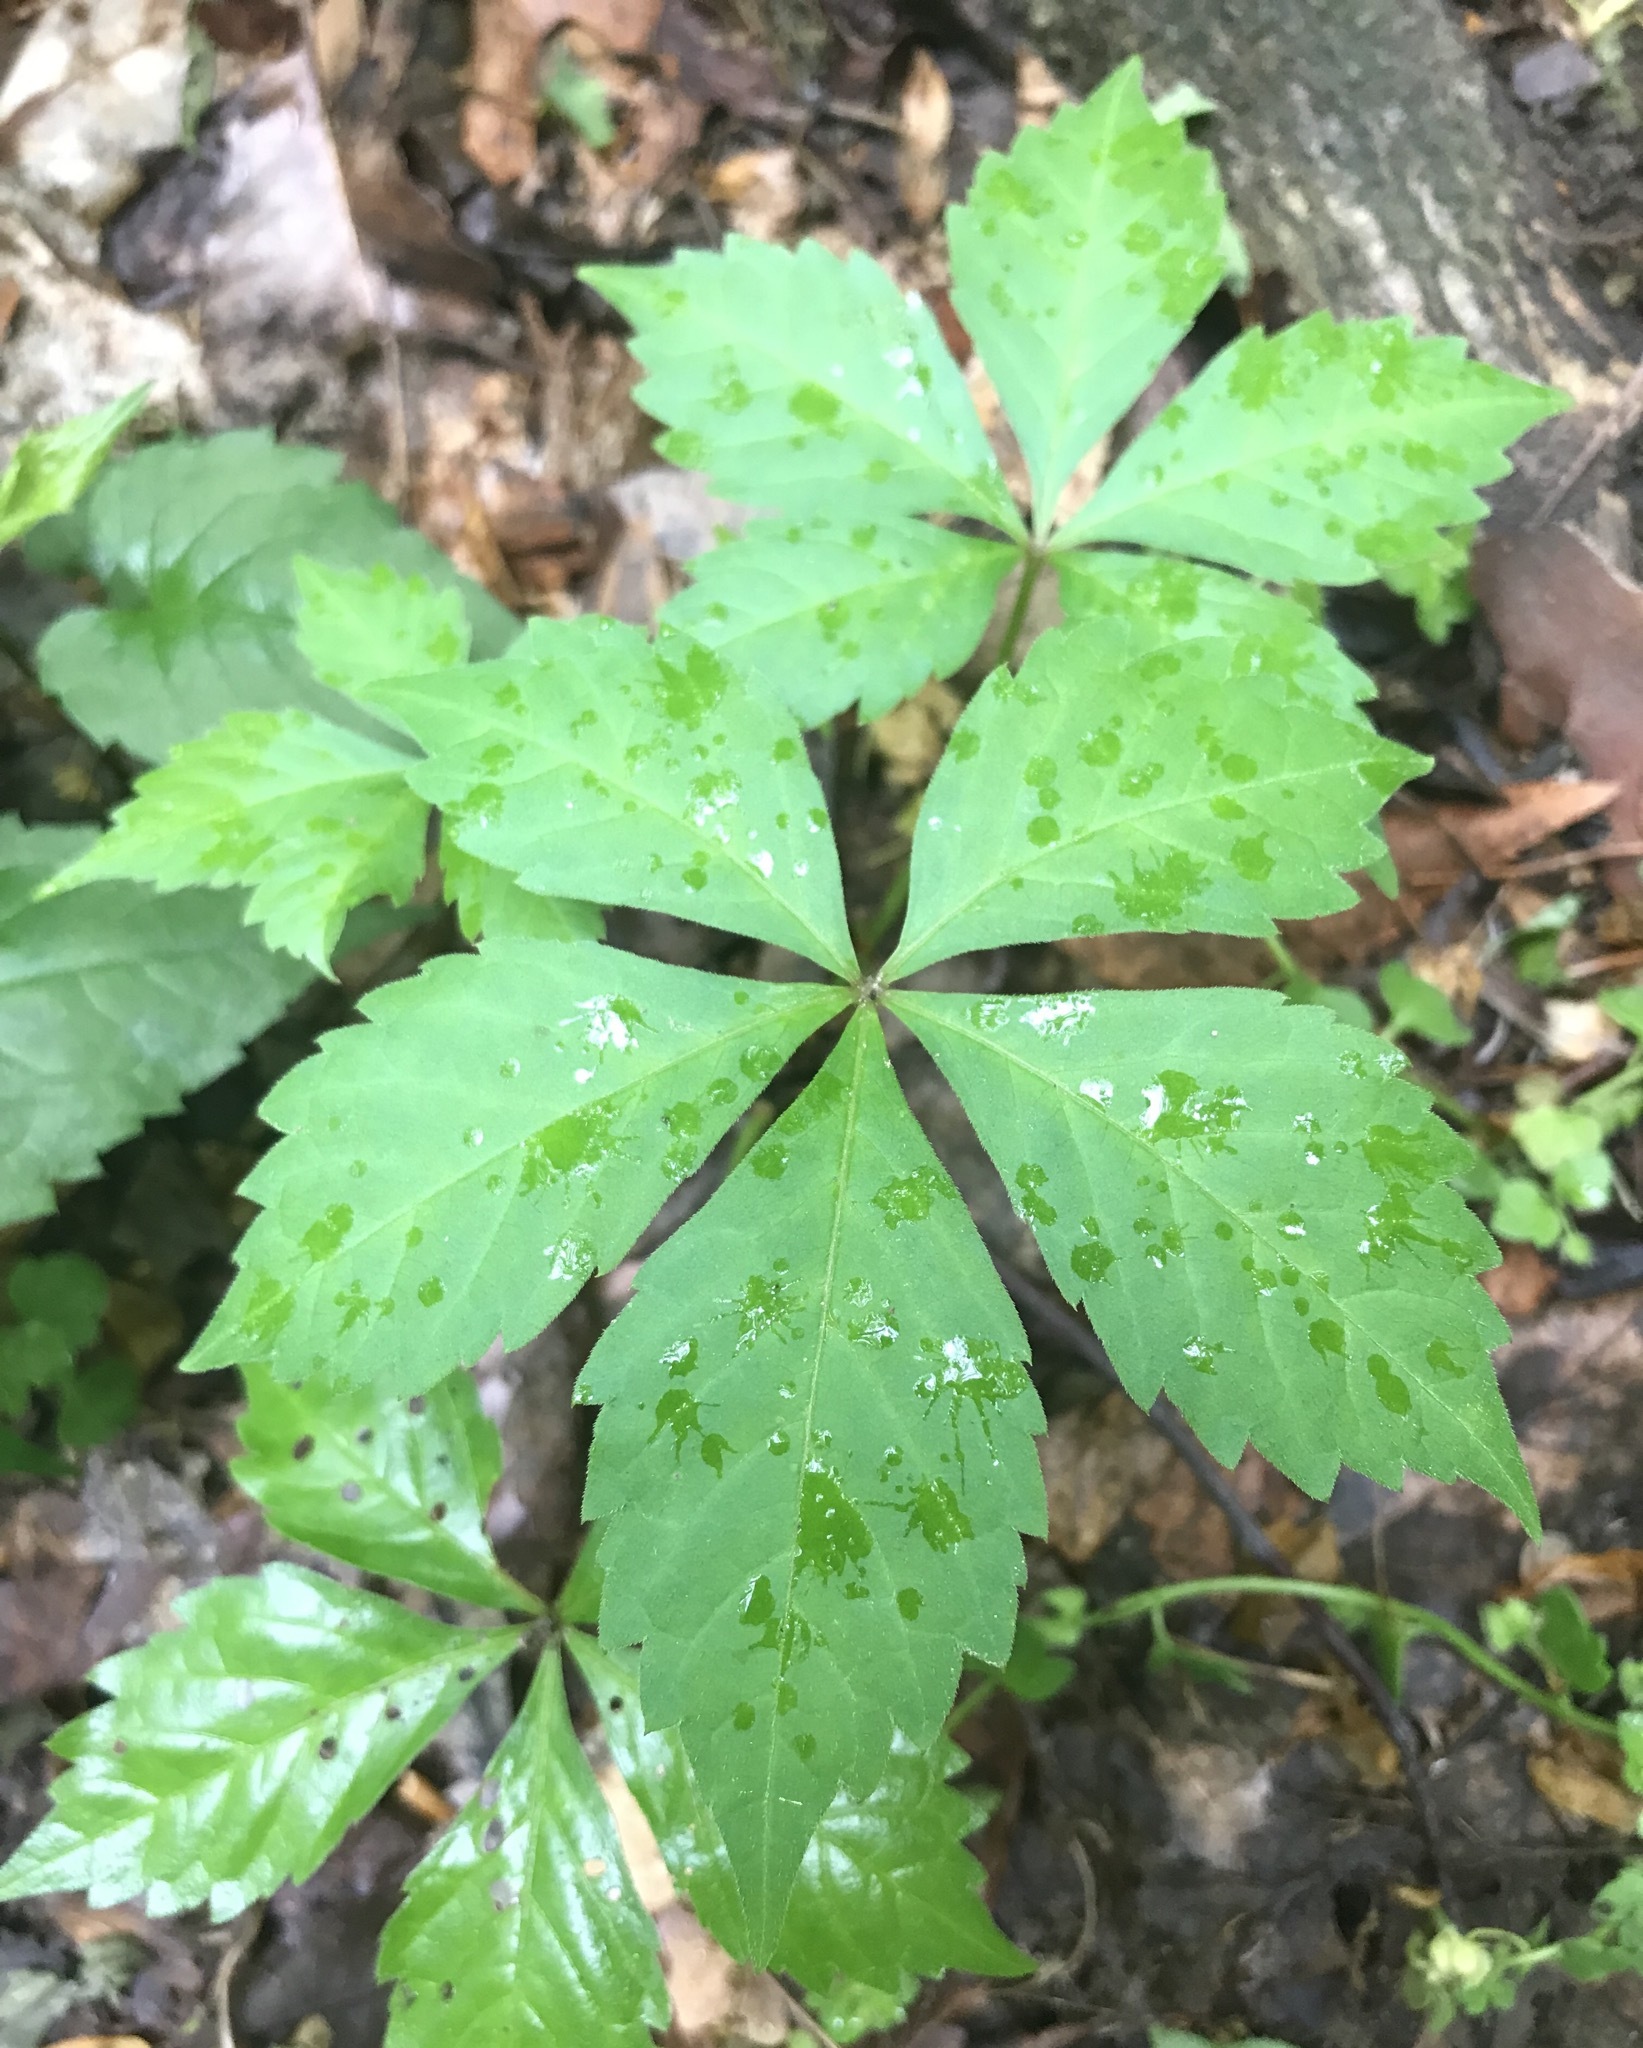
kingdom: Plantae
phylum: Tracheophyta
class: Magnoliopsida
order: Vitales
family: Vitaceae
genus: Parthenocissus
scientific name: Parthenocissus quinquefolia
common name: Virginia-creeper
